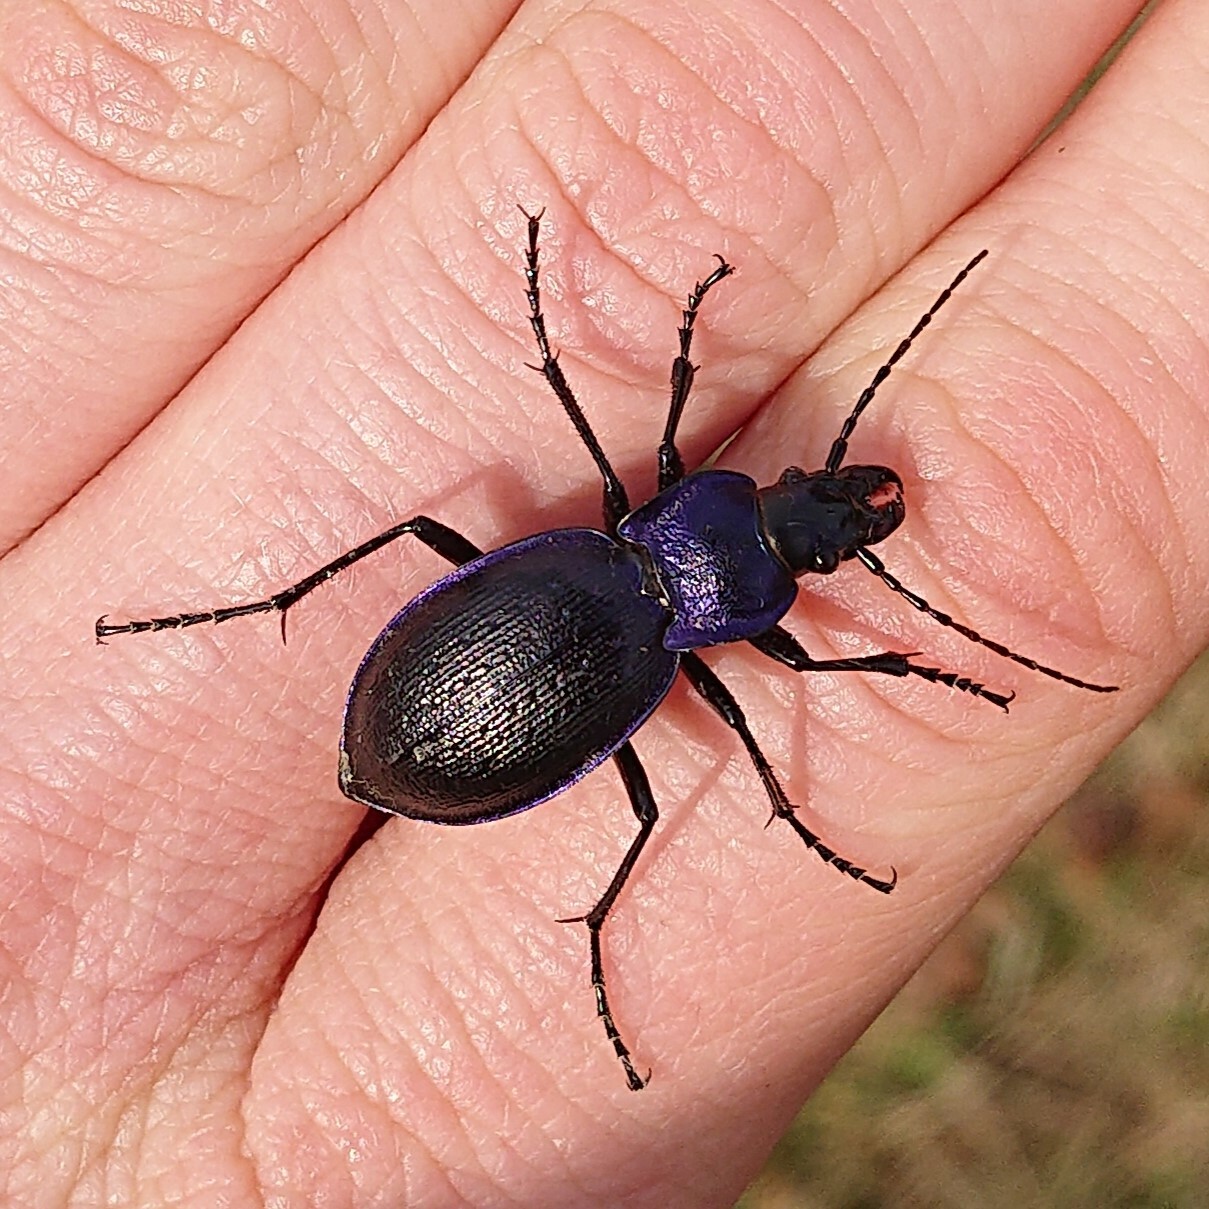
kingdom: Animalia
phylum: Arthropoda
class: Insecta
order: Coleoptera
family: Carabidae
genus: Carabus
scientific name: Carabus problematicus
